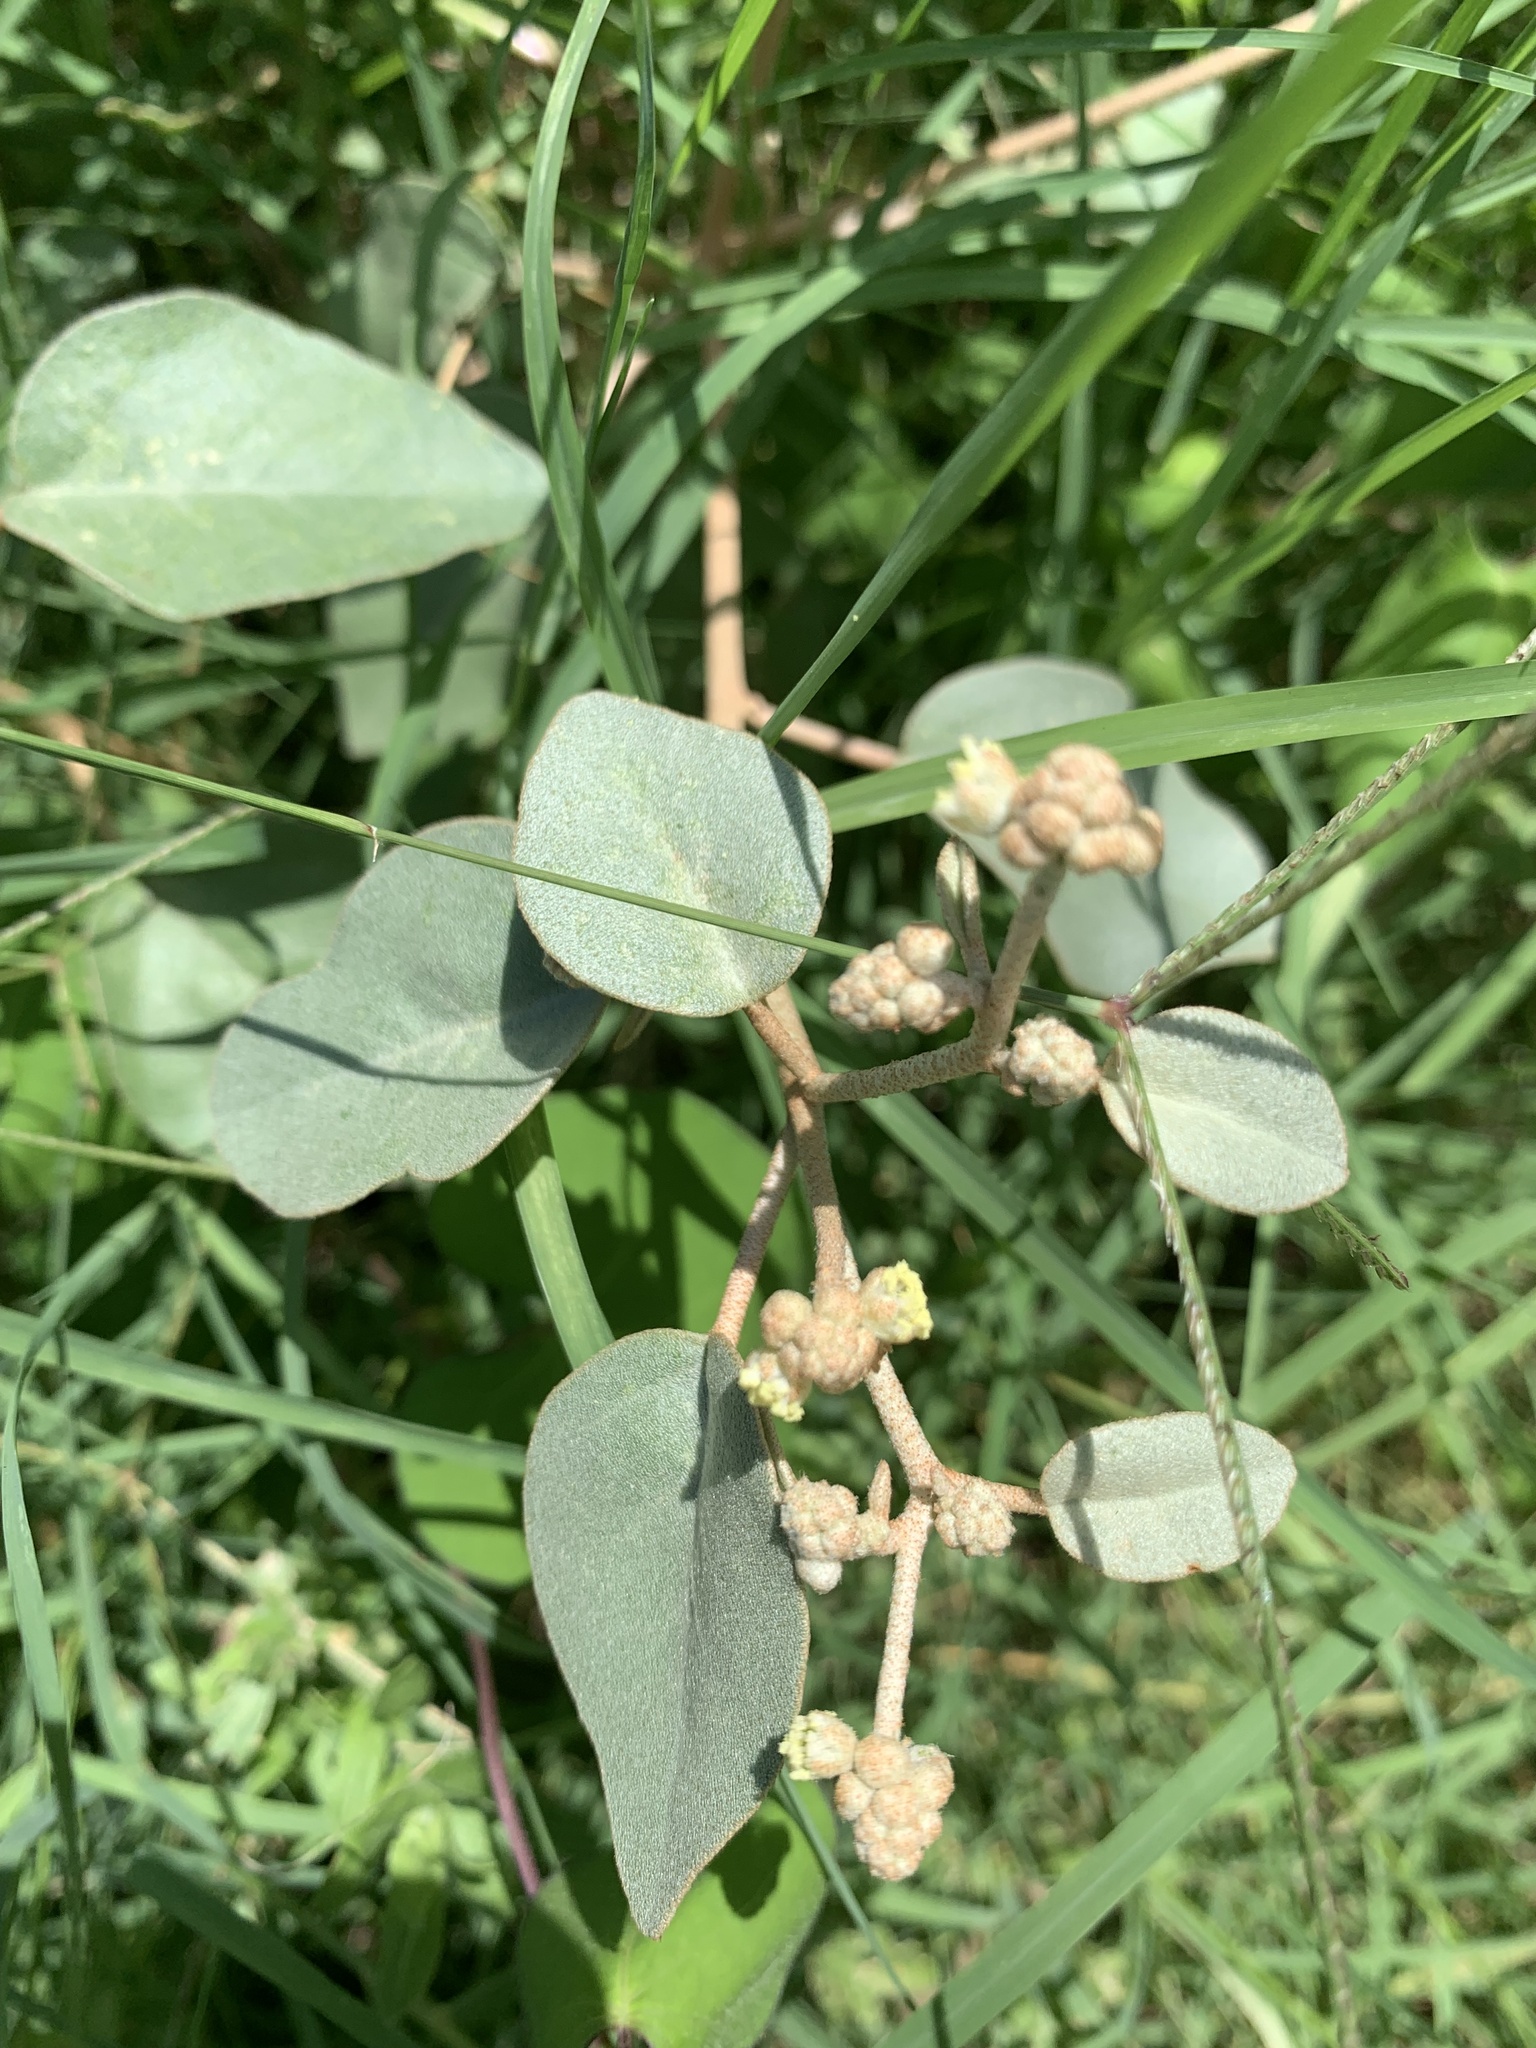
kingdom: Plantae
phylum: Tracheophyta
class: Magnoliopsida
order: Malpighiales
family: Euphorbiaceae
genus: Croton
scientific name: Croton punctatus
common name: Beach-tea
